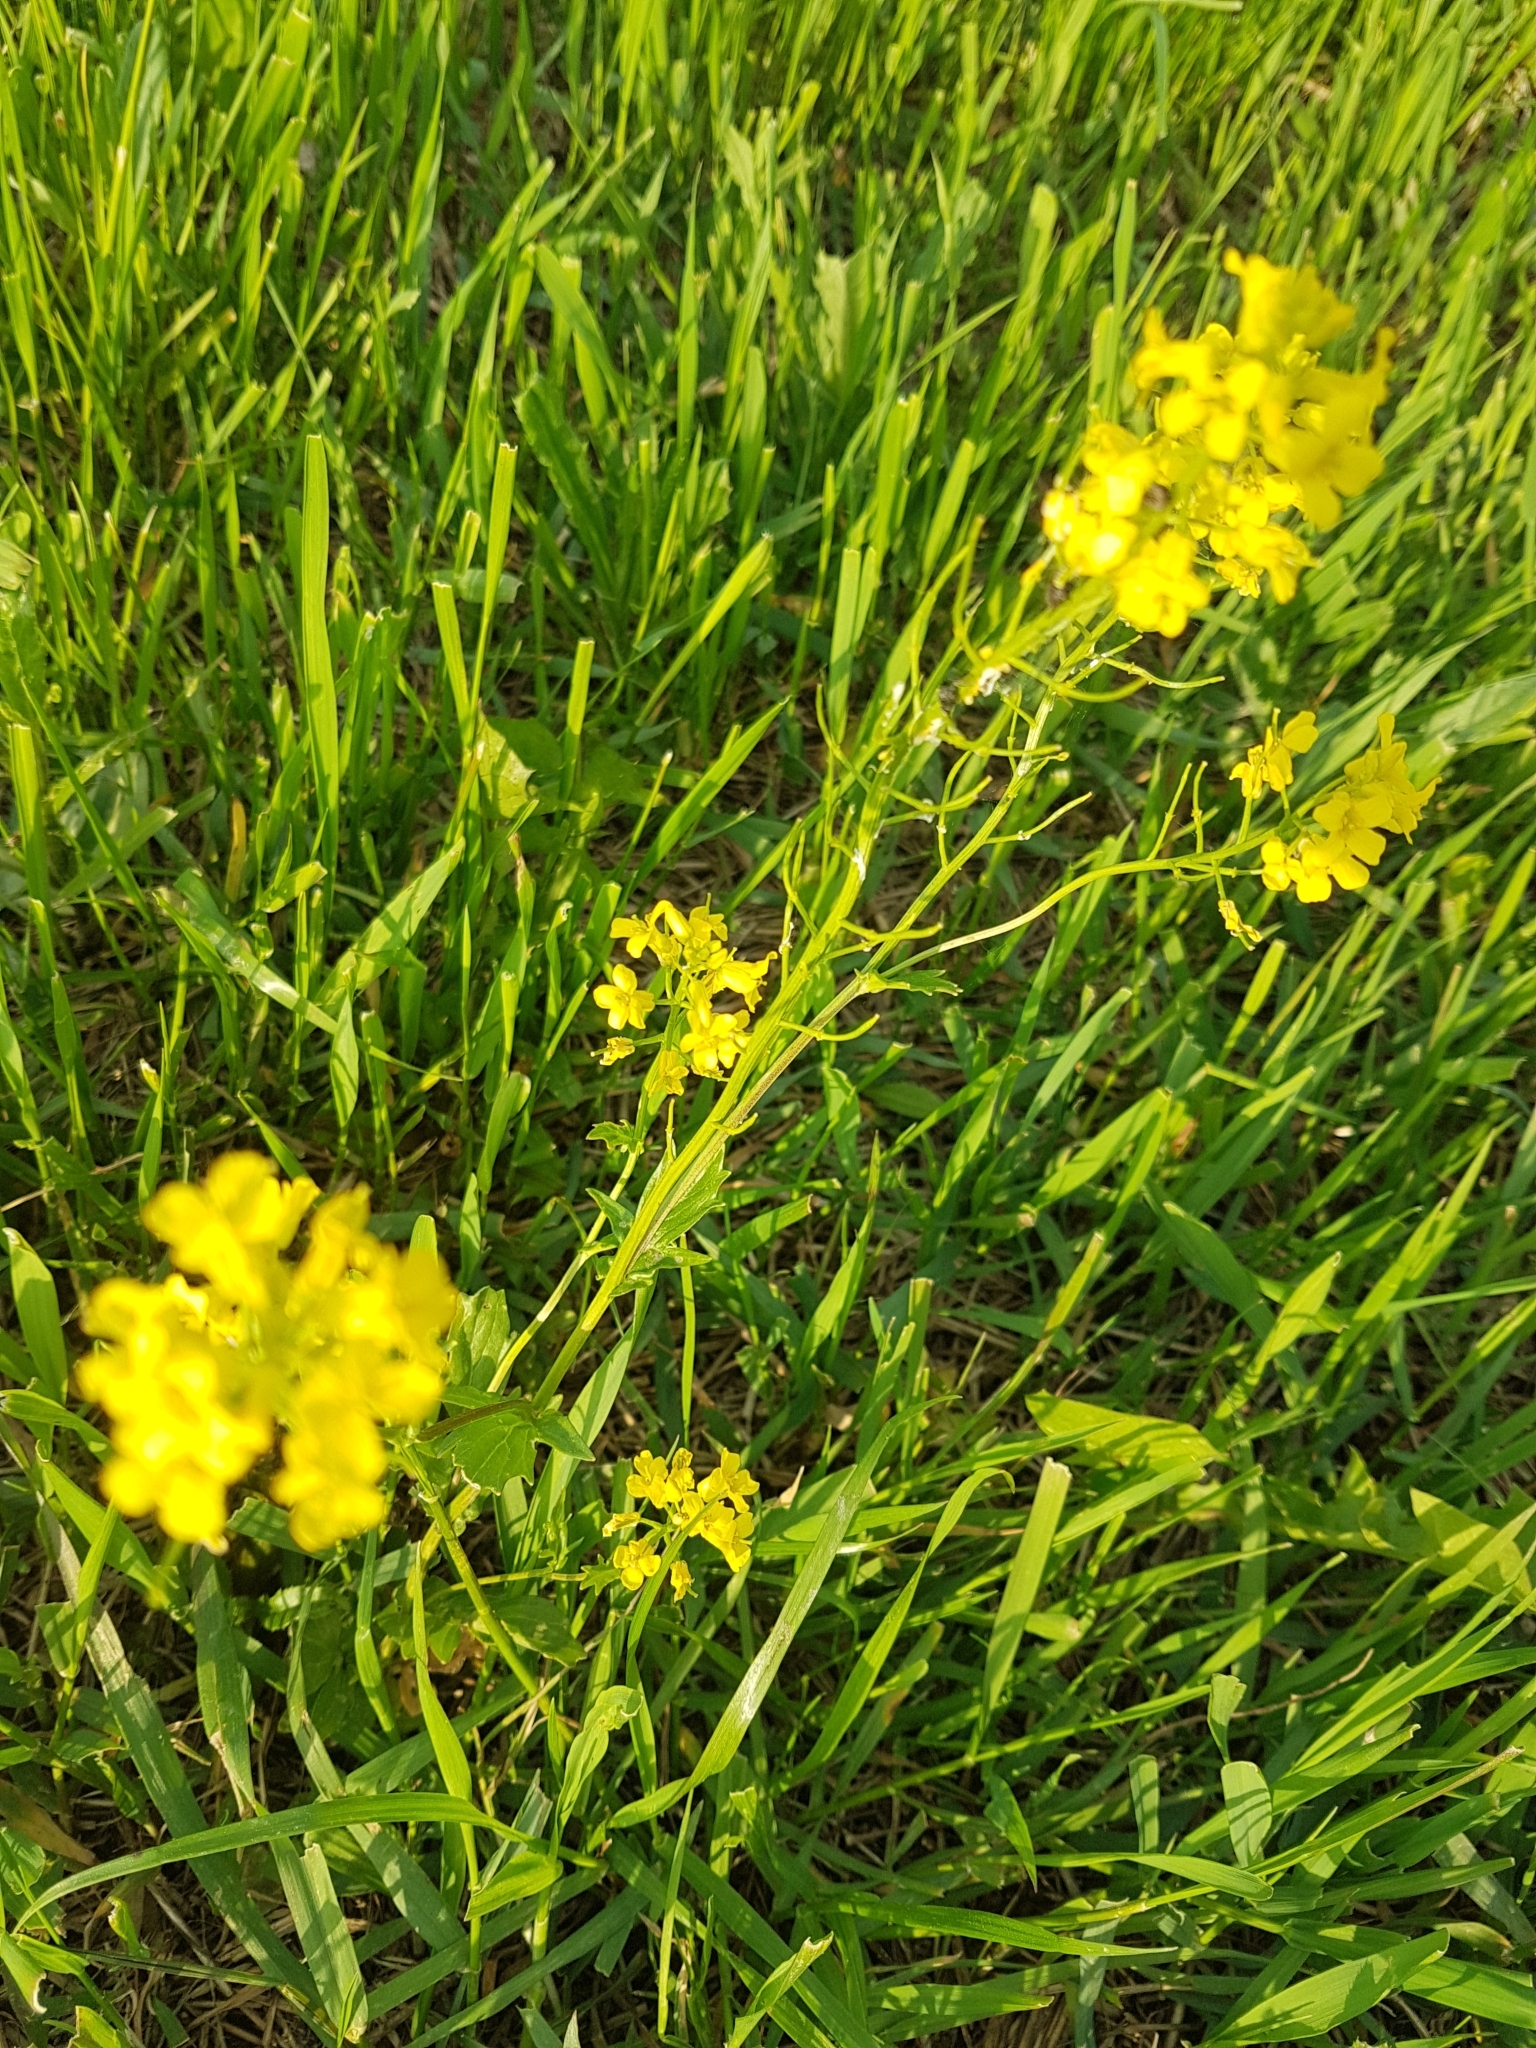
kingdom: Plantae
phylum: Tracheophyta
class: Magnoliopsida
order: Brassicales
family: Brassicaceae
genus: Barbarea
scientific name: Barbarea vulgaris
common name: Cressy-greens
